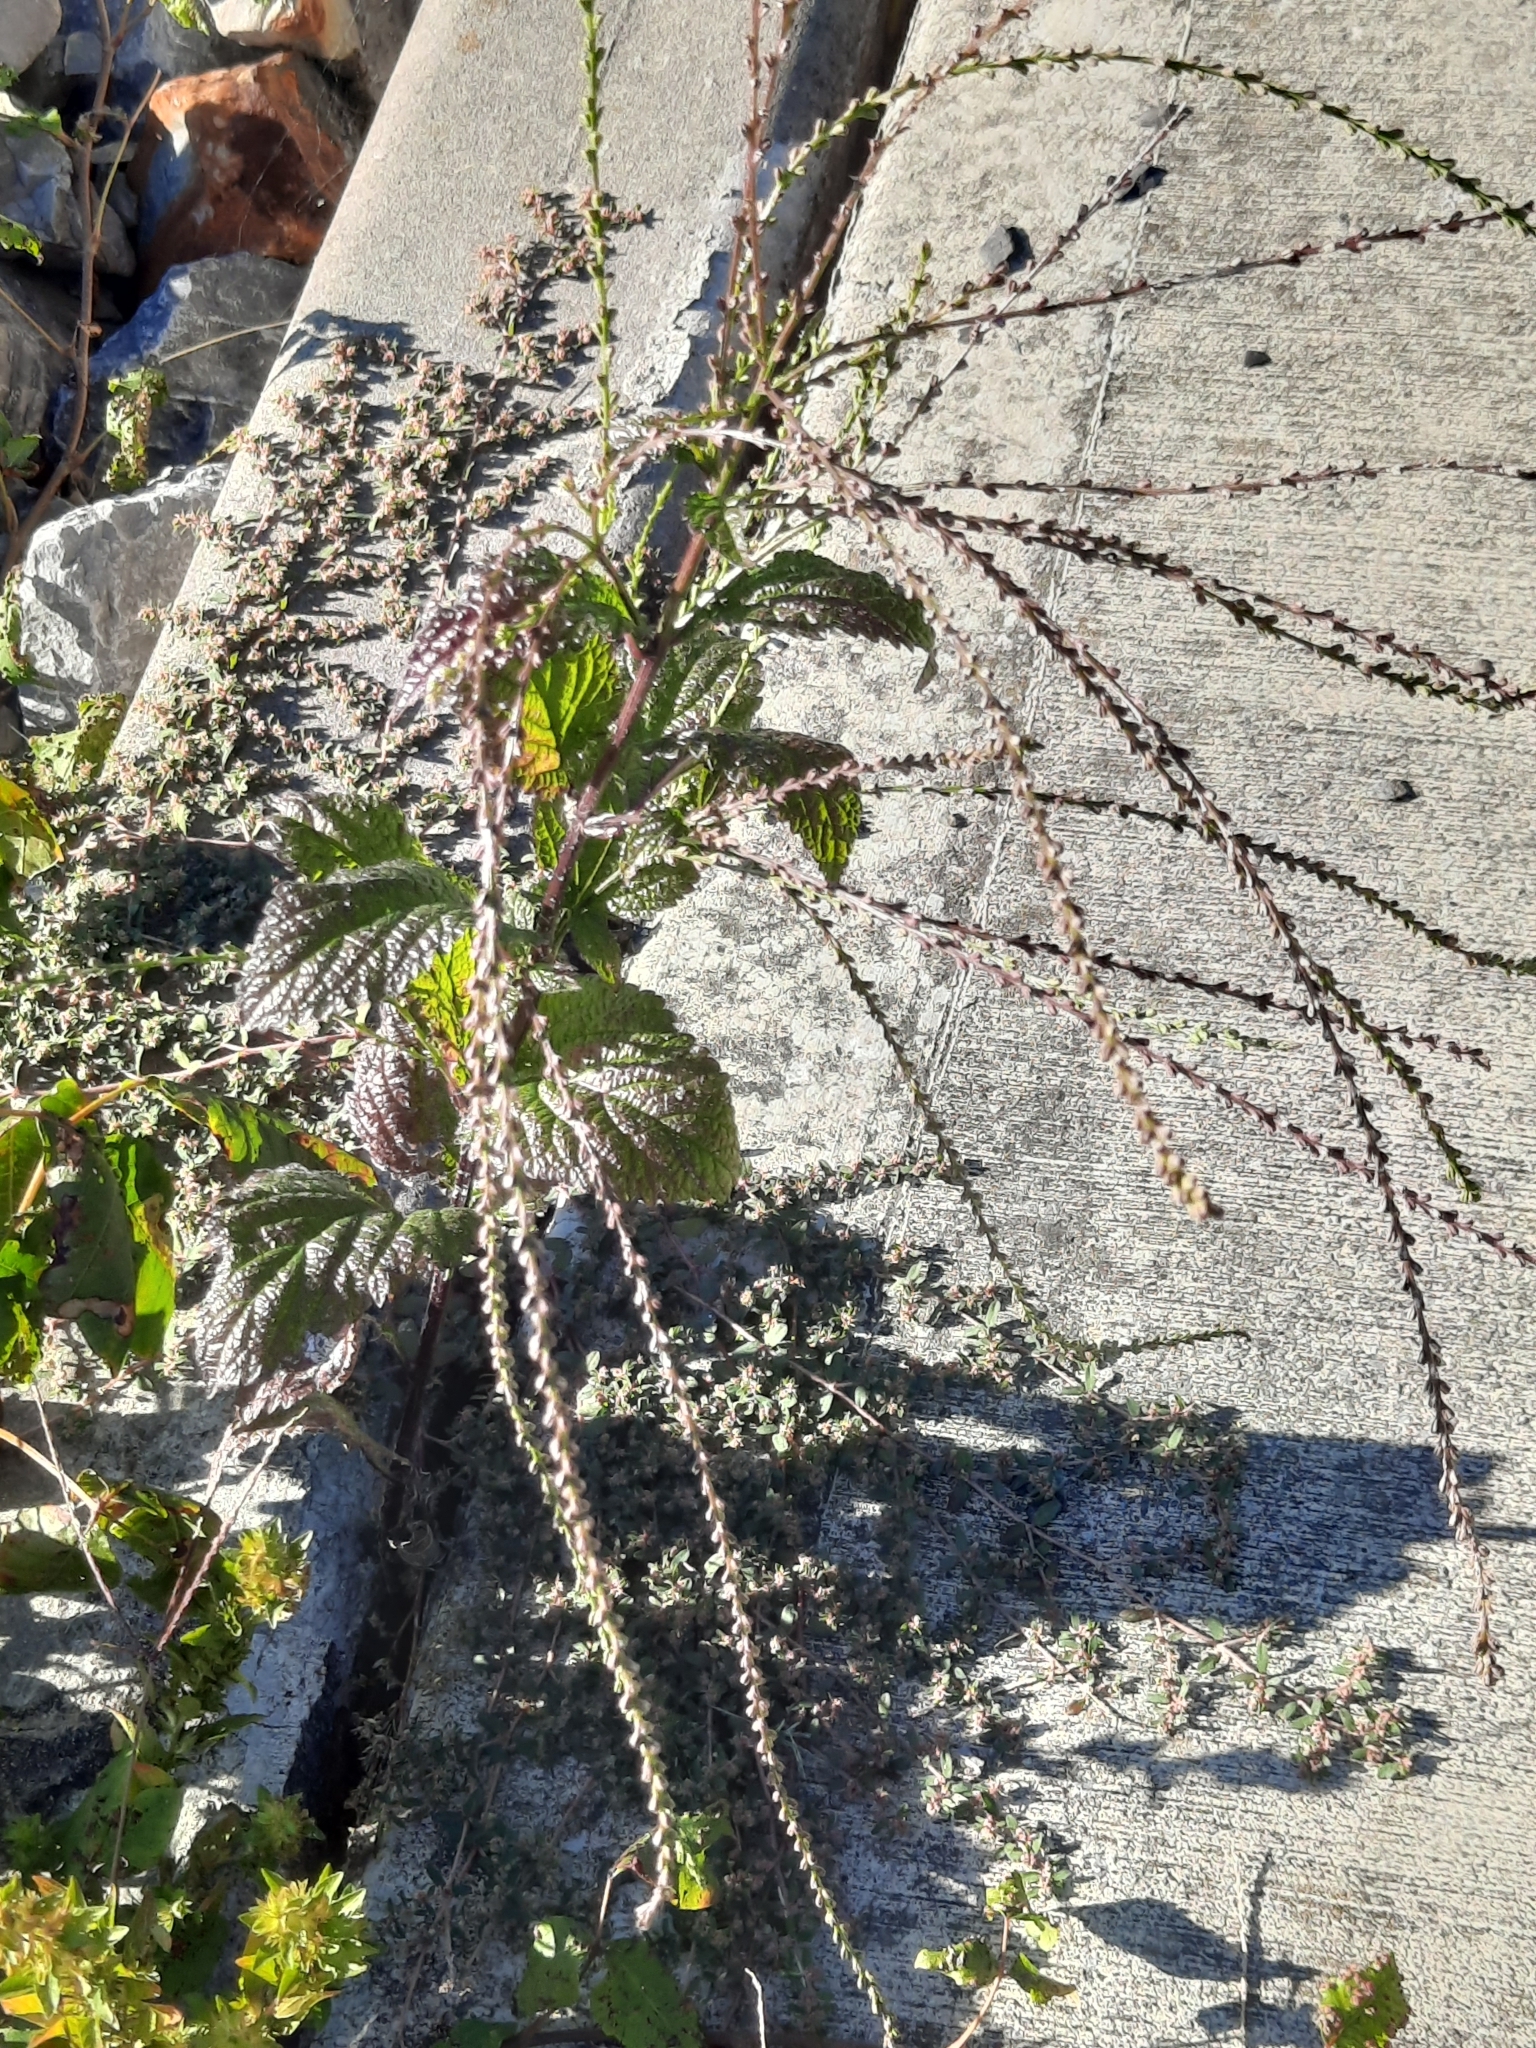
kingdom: Plantae
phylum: Tracheophyta
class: Magnoliopsida
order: Lamiales
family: Verbenaceae
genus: Verbena
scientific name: Verbena urticifolia
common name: Nettle-leaved vervain
